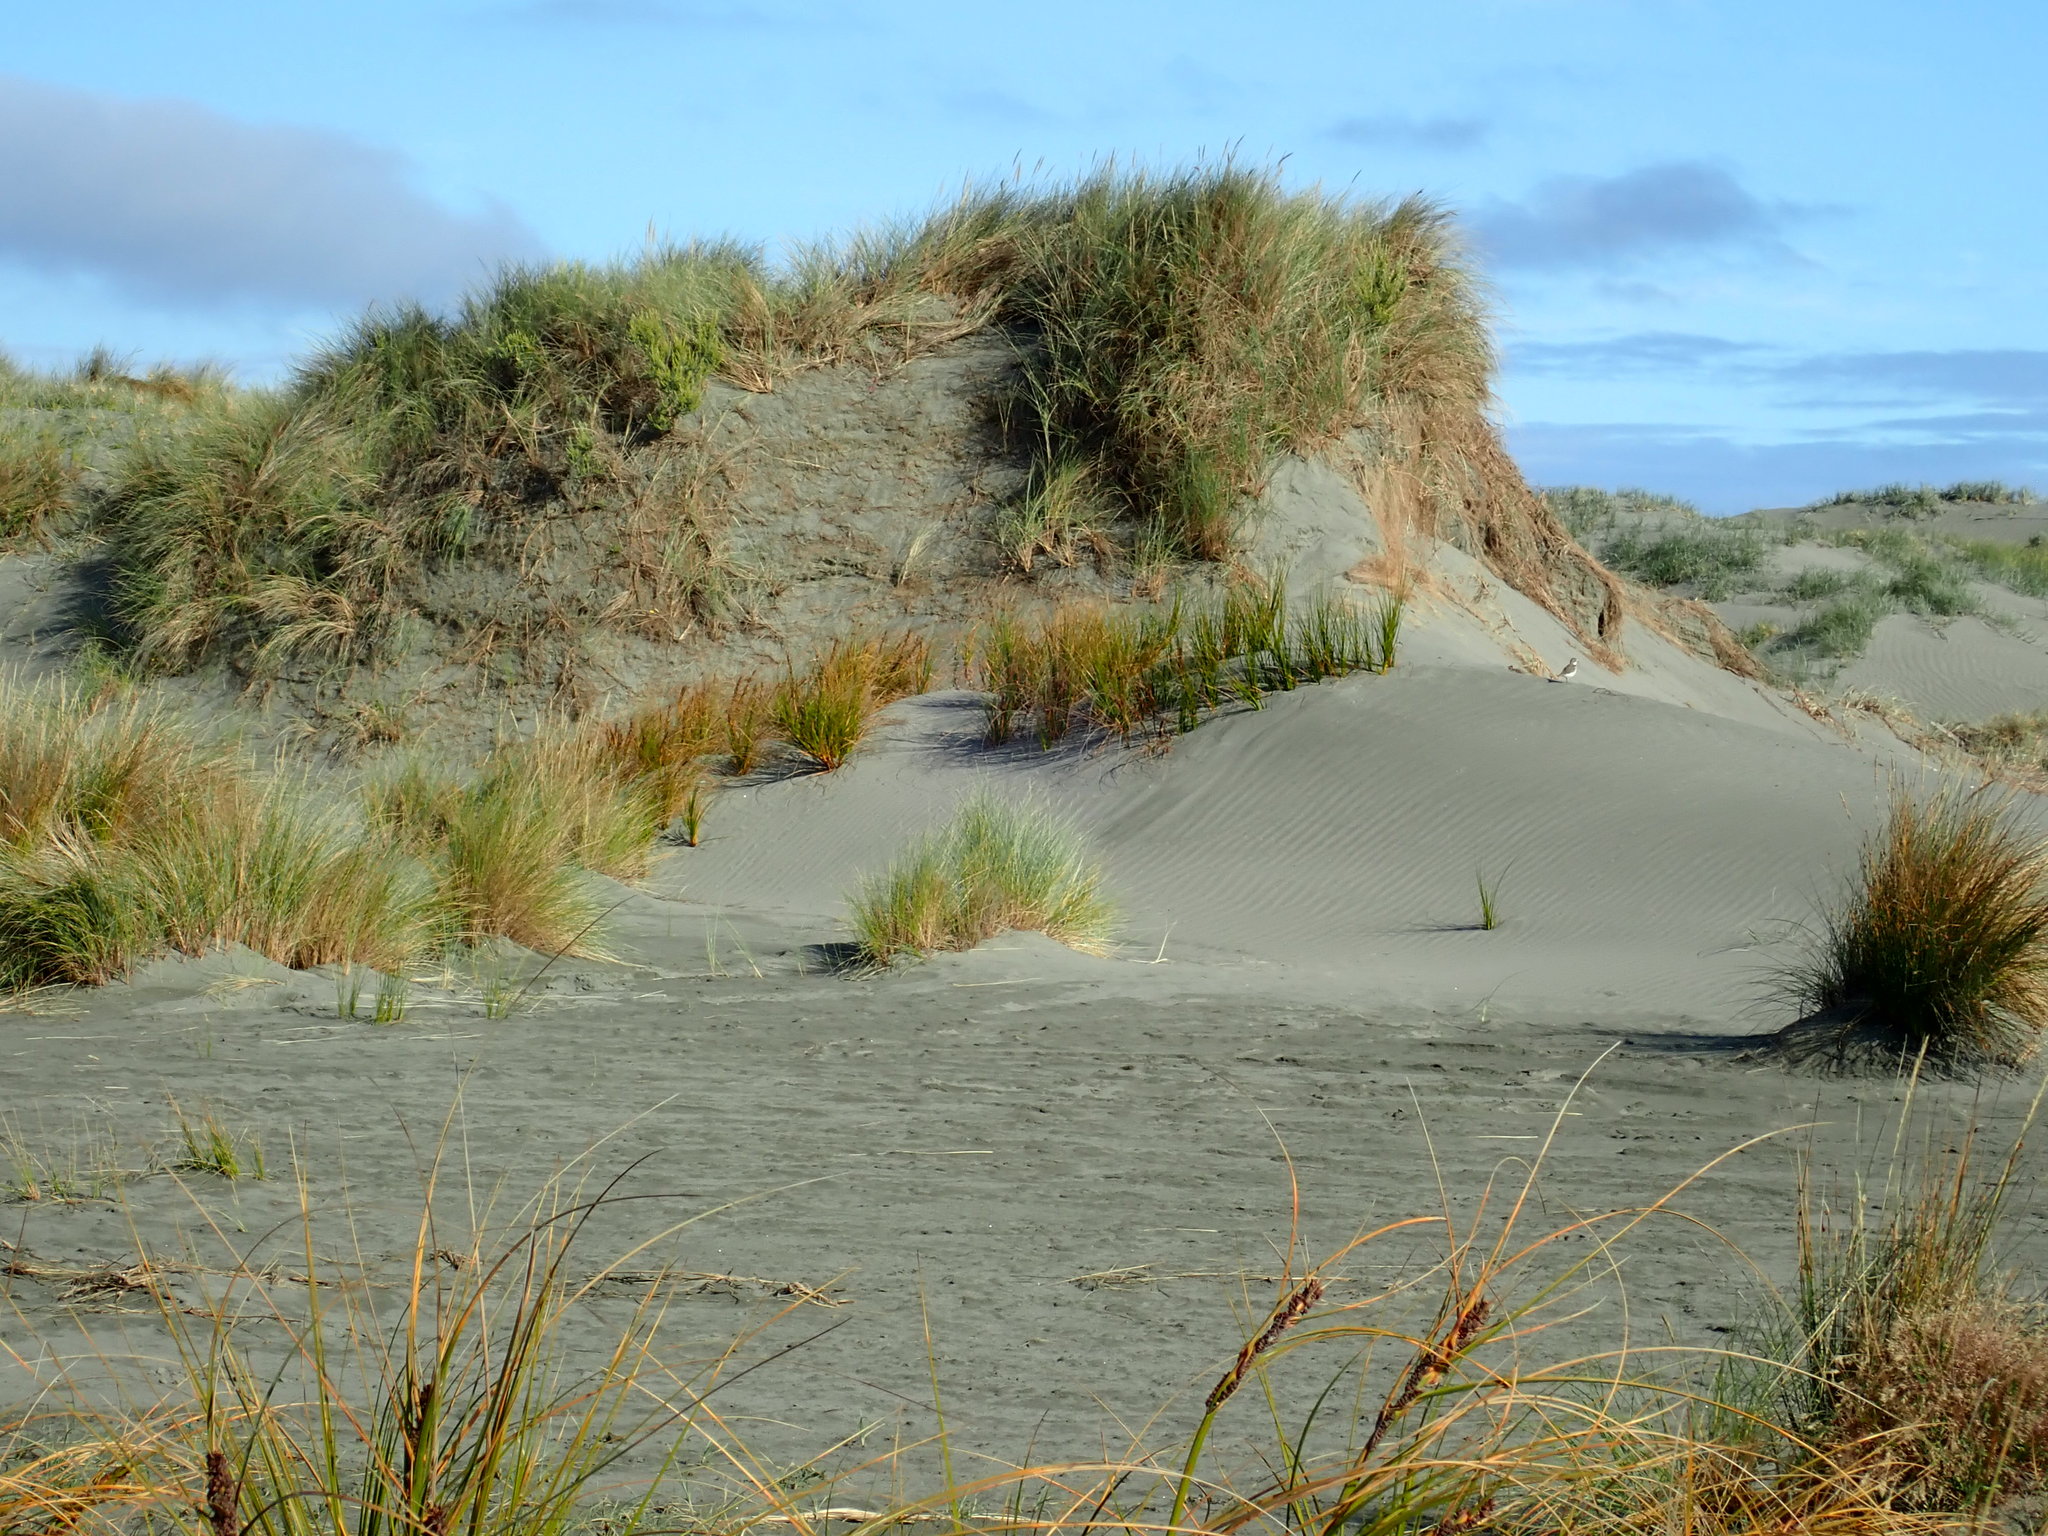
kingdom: Animalia
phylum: Chordata
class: Aves
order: Charadriiformes
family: Charadriidae
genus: Anarhynchus
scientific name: Anarhynchus
